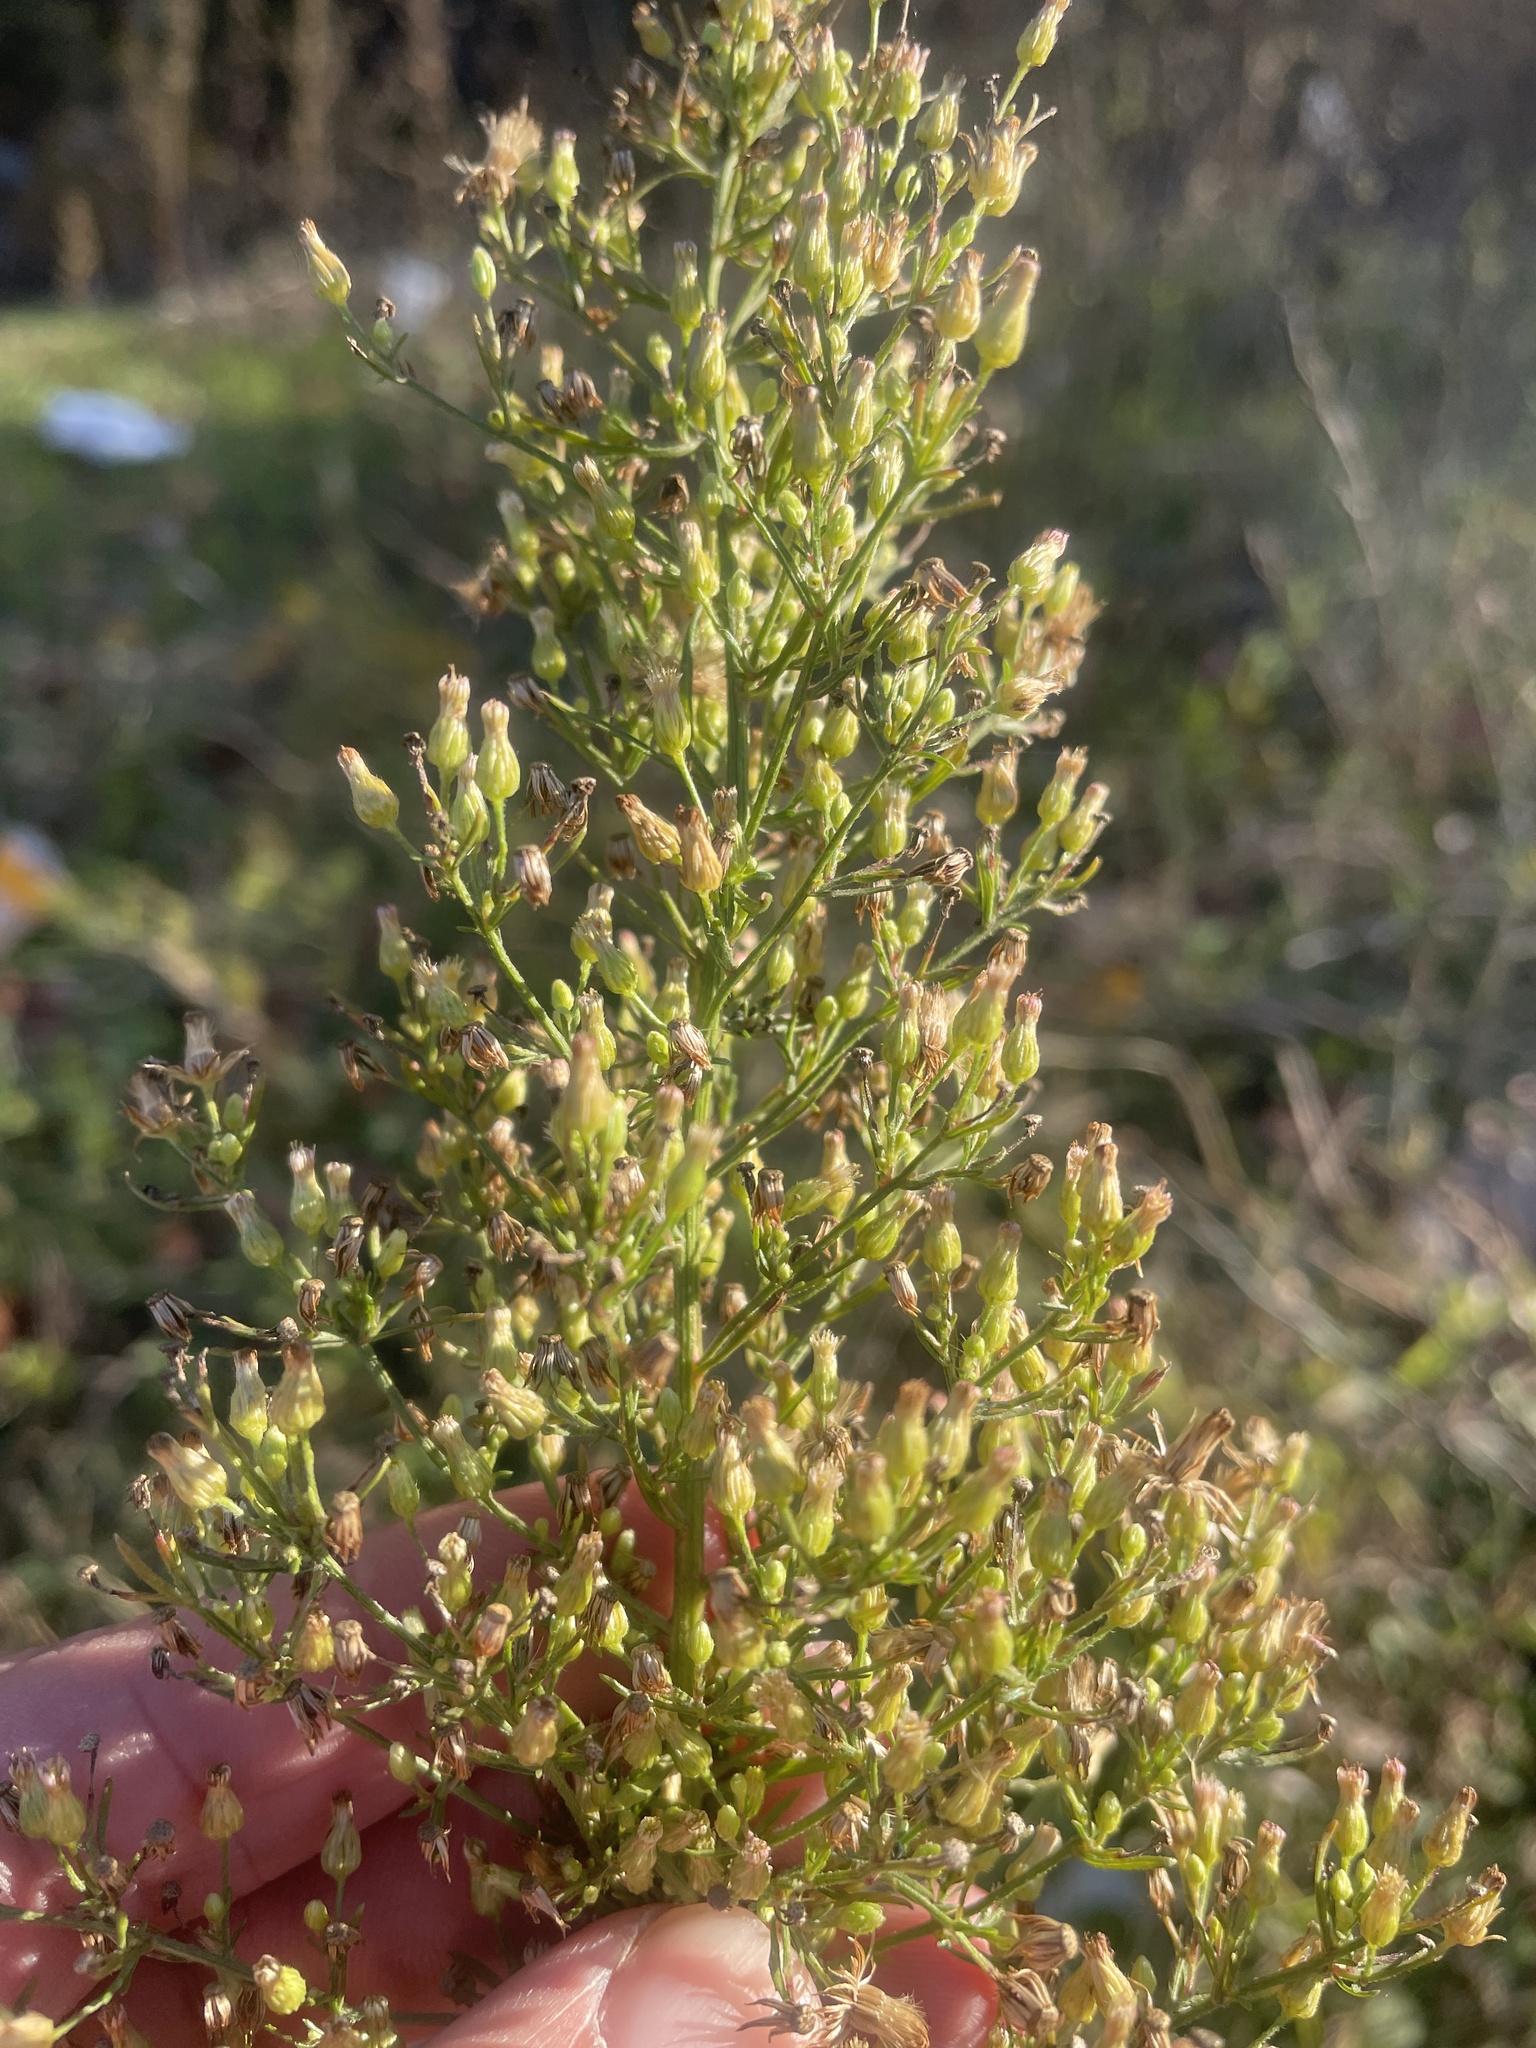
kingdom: Plantae
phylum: Tracheophyta
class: Magnoliopsida
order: Asterales
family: Asteraceae
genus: Erigeron
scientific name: Erigeron canadensis
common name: Canadian fleabane
